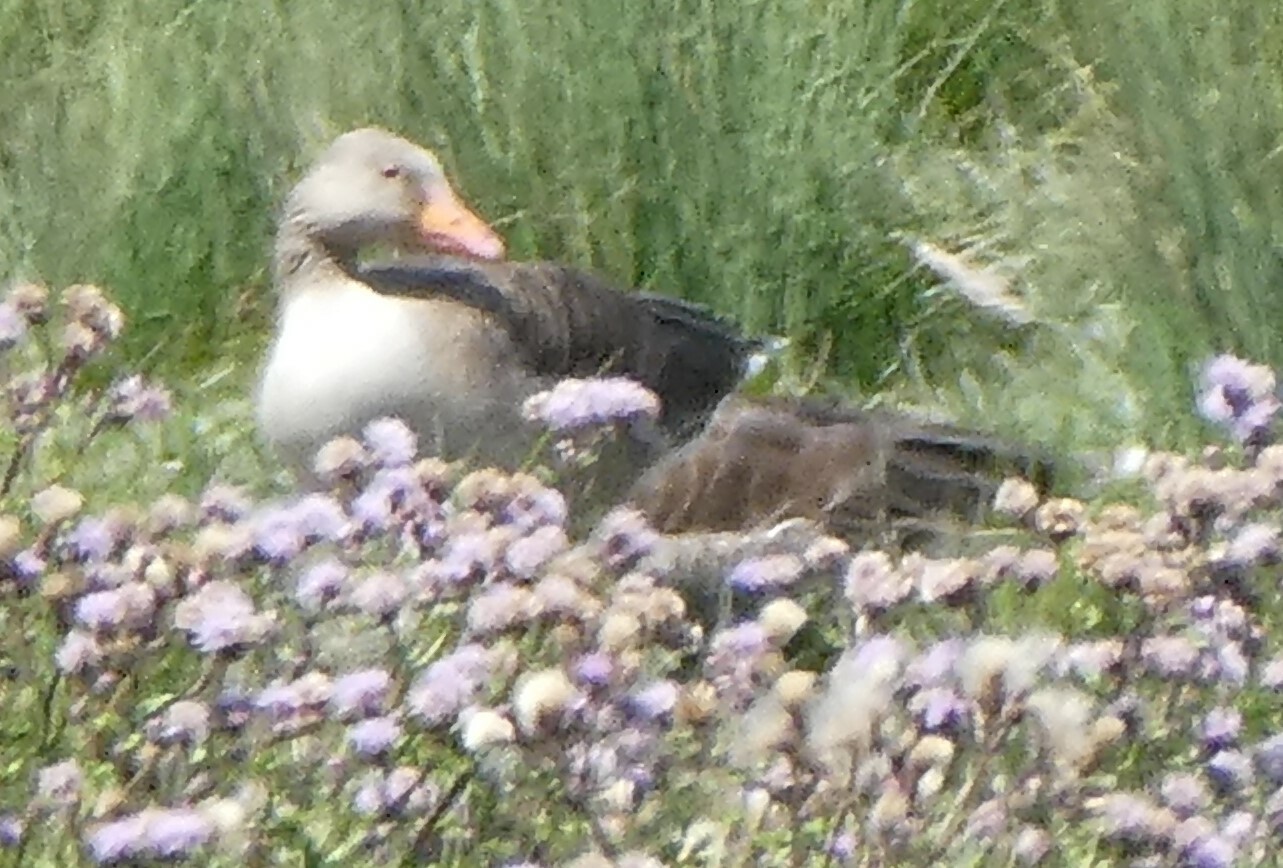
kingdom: Animalia
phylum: Chordata
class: Aves
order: Anseriformes
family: Anatidae
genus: Anser
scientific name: Anser anser
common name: Greylag goose
